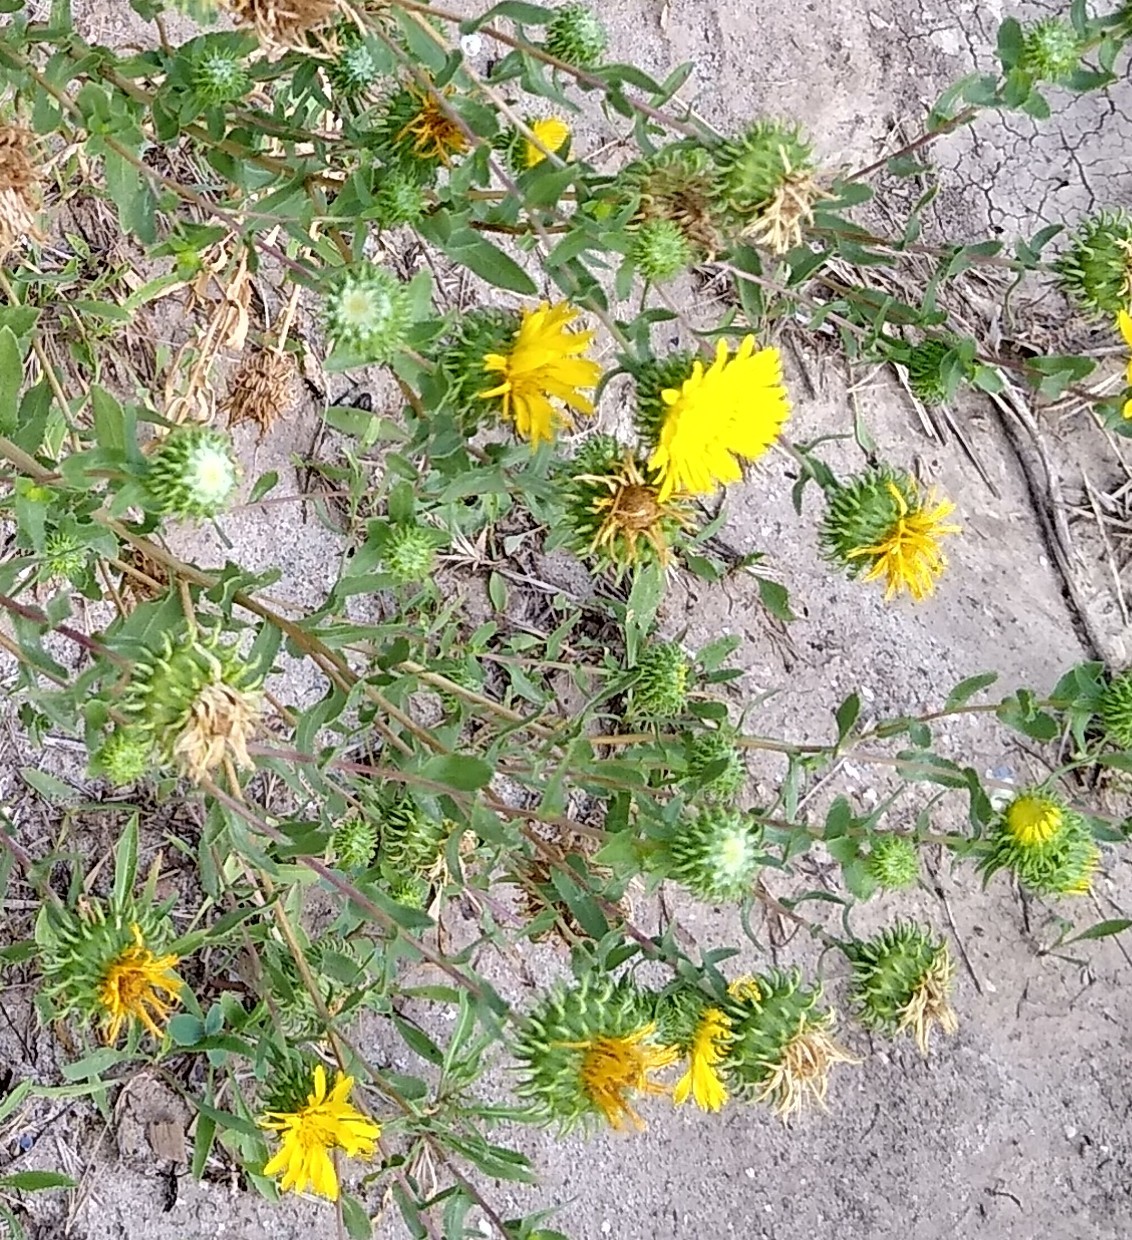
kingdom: Plantae
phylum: Tracheophyta
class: Magnoliopsida
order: Asterales
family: Asteraceae
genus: Grindelia
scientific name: Grindelia squarrosa
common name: Curly-cup gumweed
